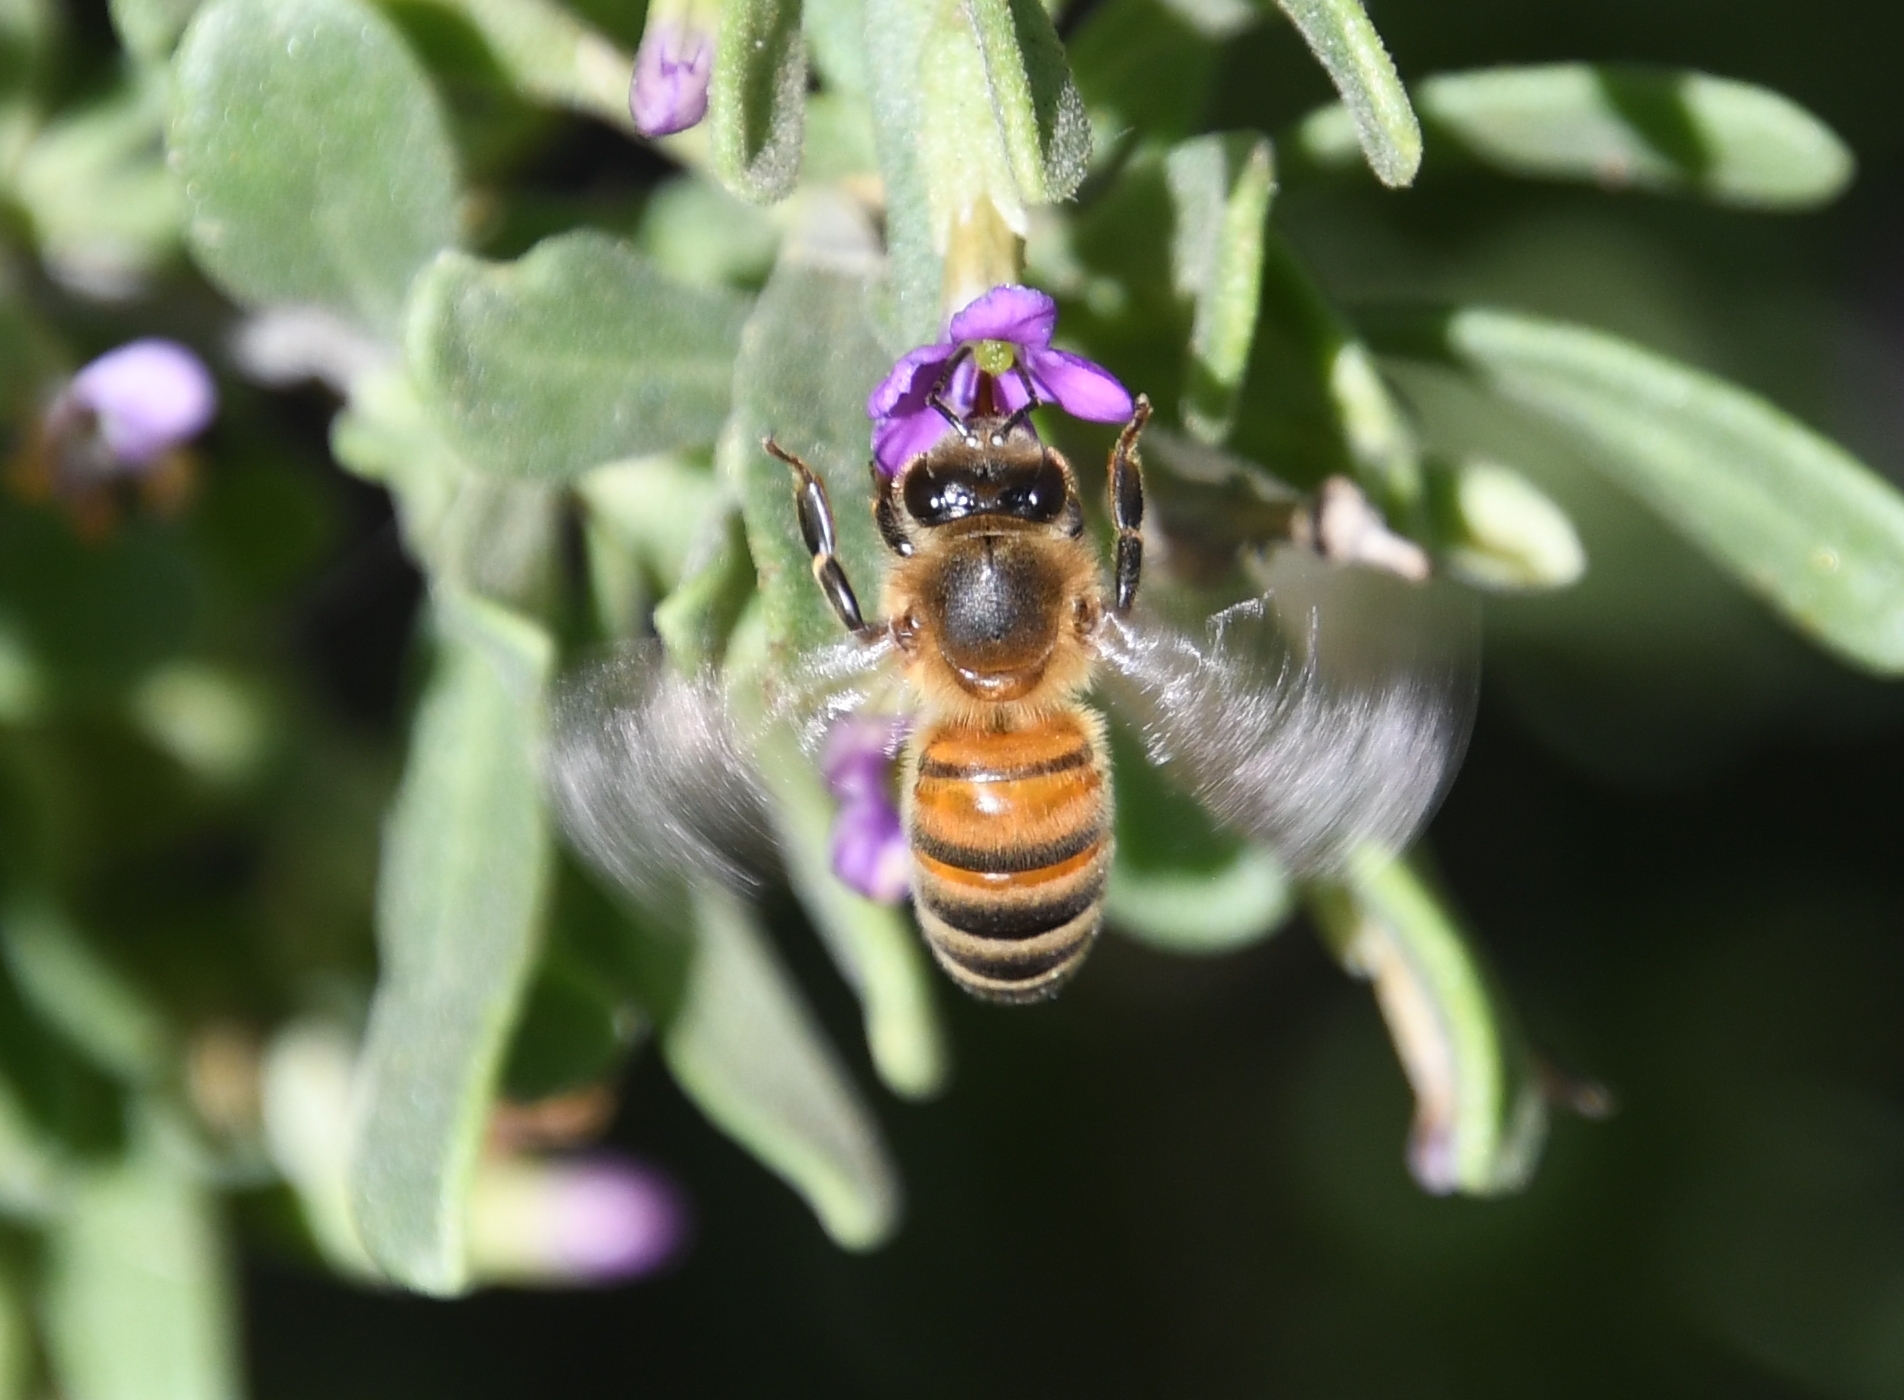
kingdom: Animalia
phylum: Arthropoda
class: Insecta
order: Hymenoptera
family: Apidae
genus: Apis
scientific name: Apis mellifera
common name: Honey bee
